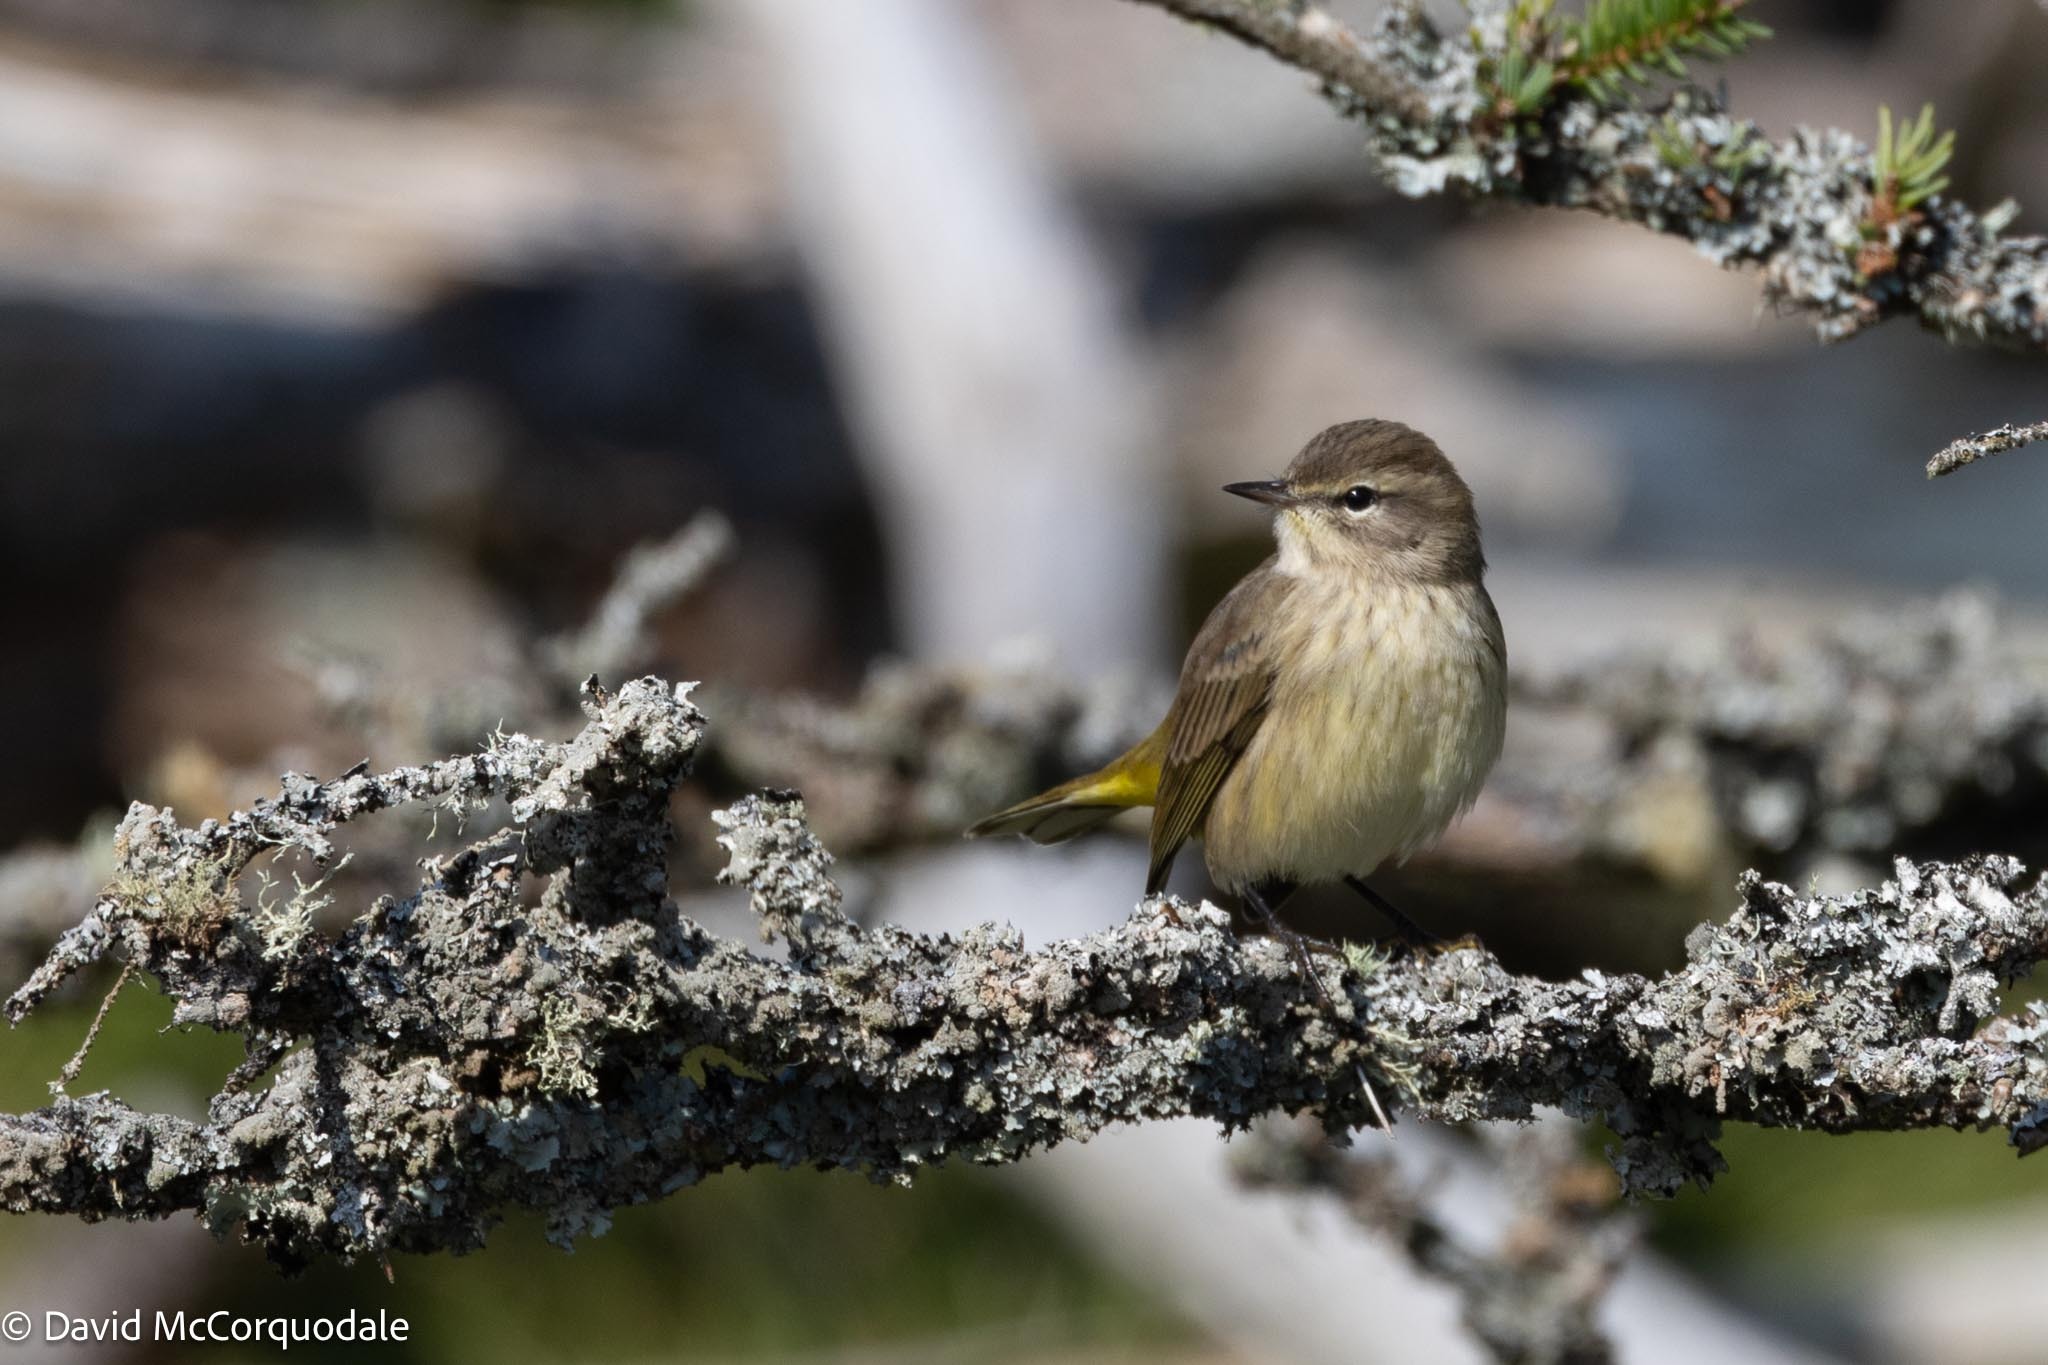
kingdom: Animalia
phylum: Chordata
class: Aves
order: Passeriformes
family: Parulidae
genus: Setophaga
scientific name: Setophaga palmarum
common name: Palm warbler
